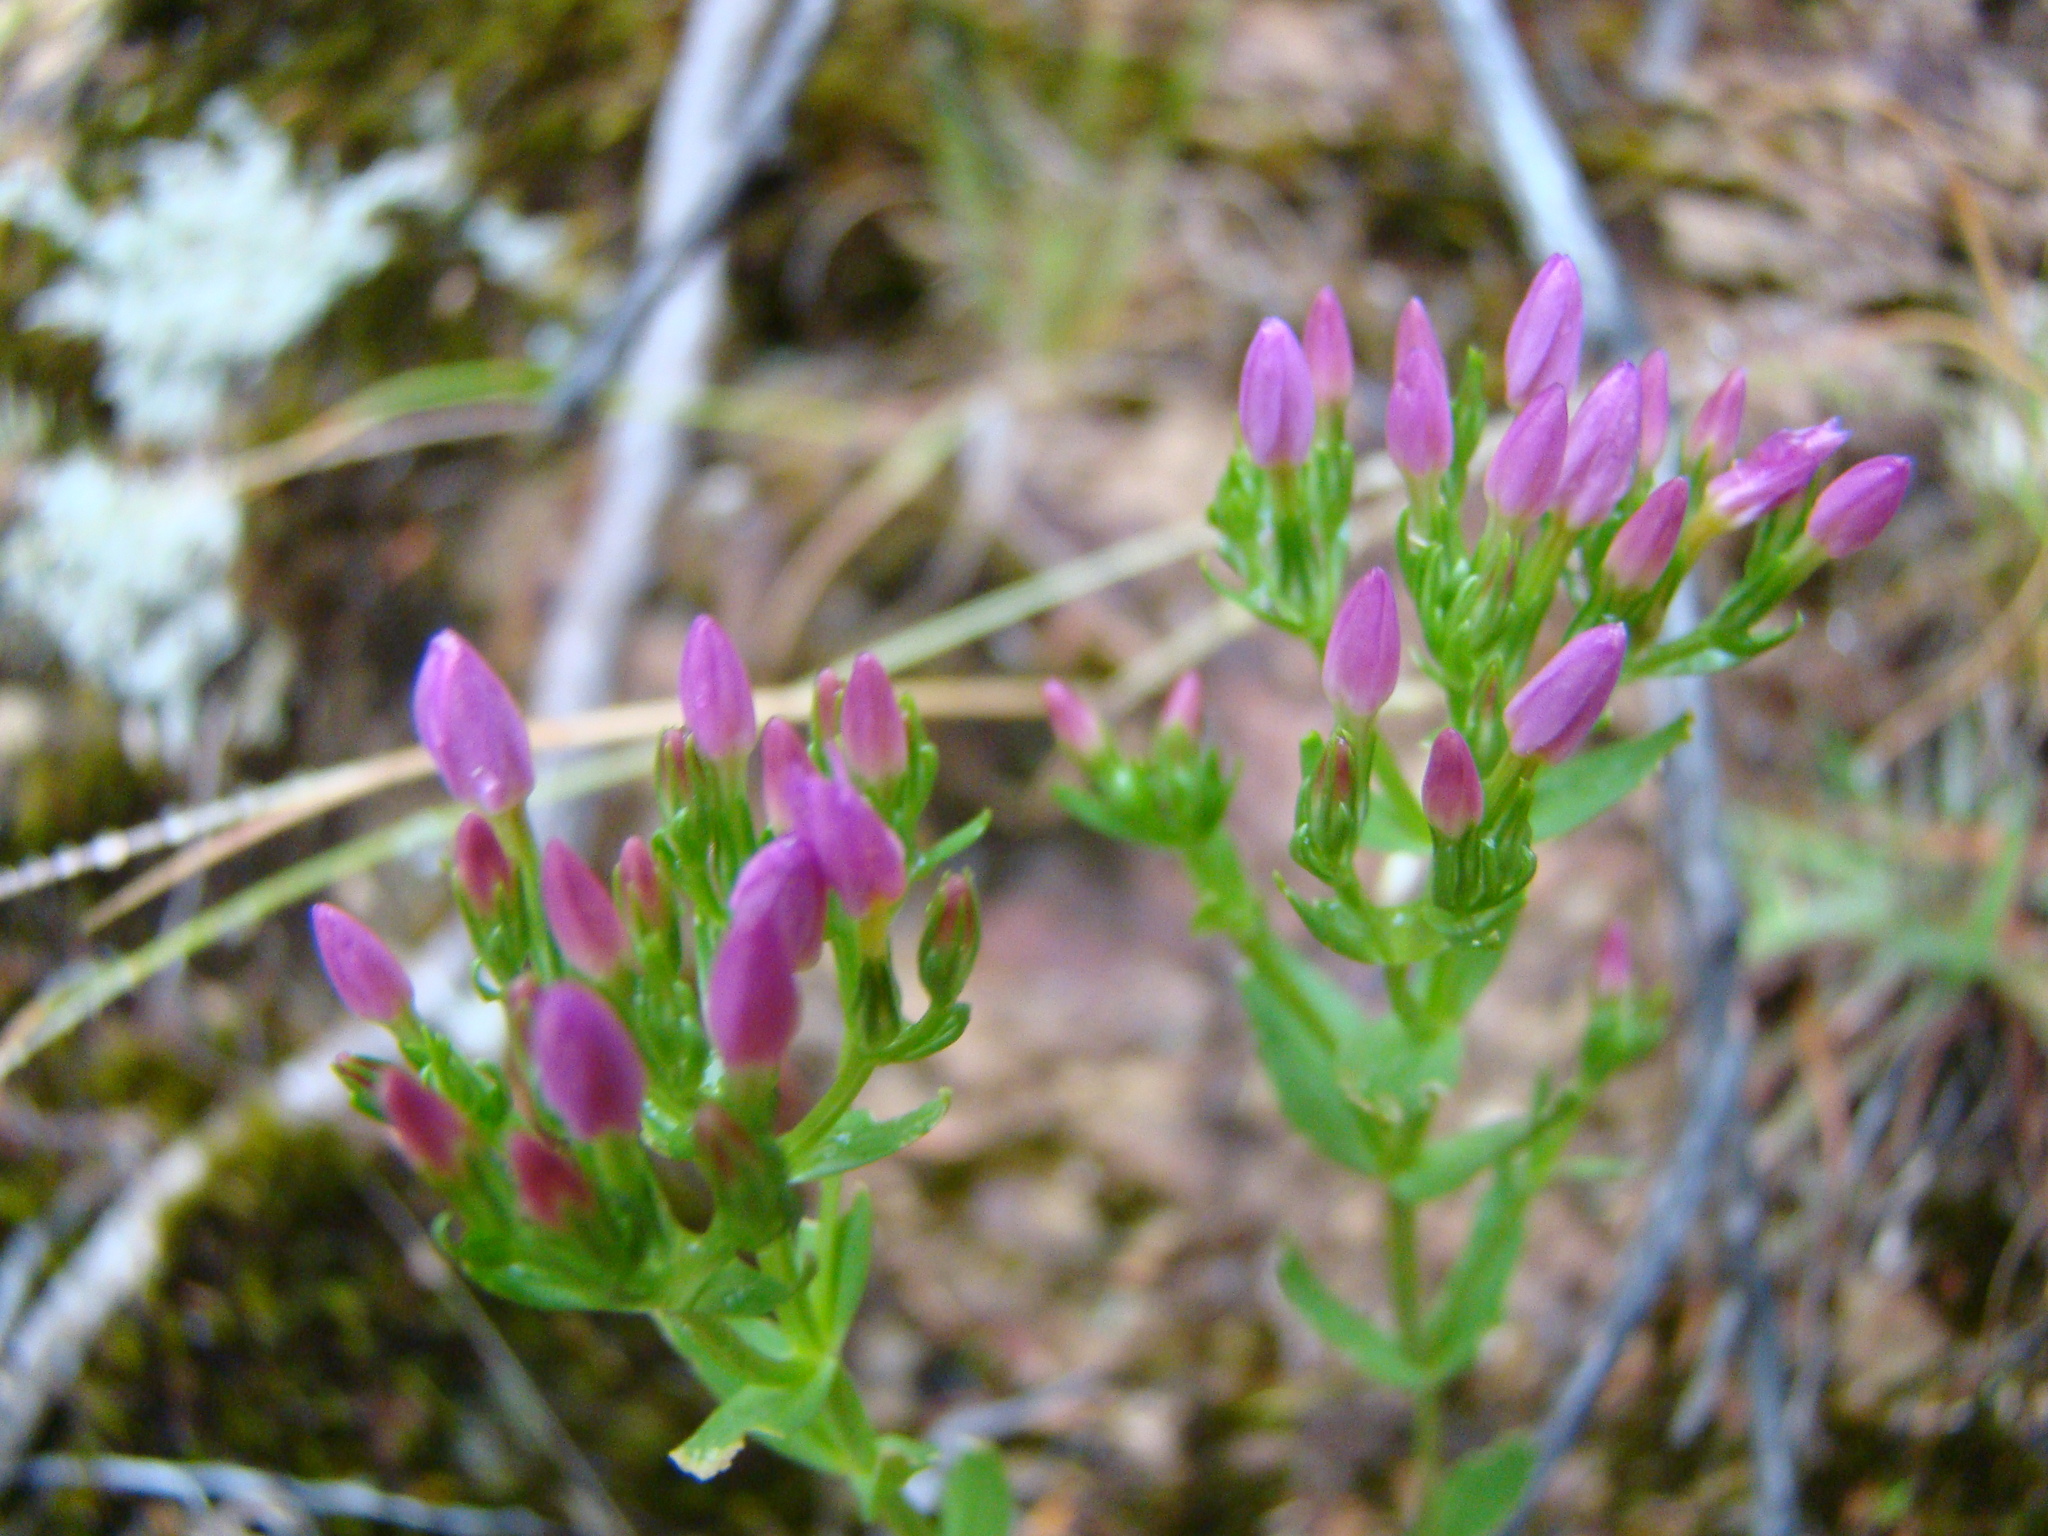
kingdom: Plantae
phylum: Tracheophyta
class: Magnoliopsida
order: Gentianales
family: Gentianaceae
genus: Centaurium
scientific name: Centaurium erythraea
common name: Common centaury
